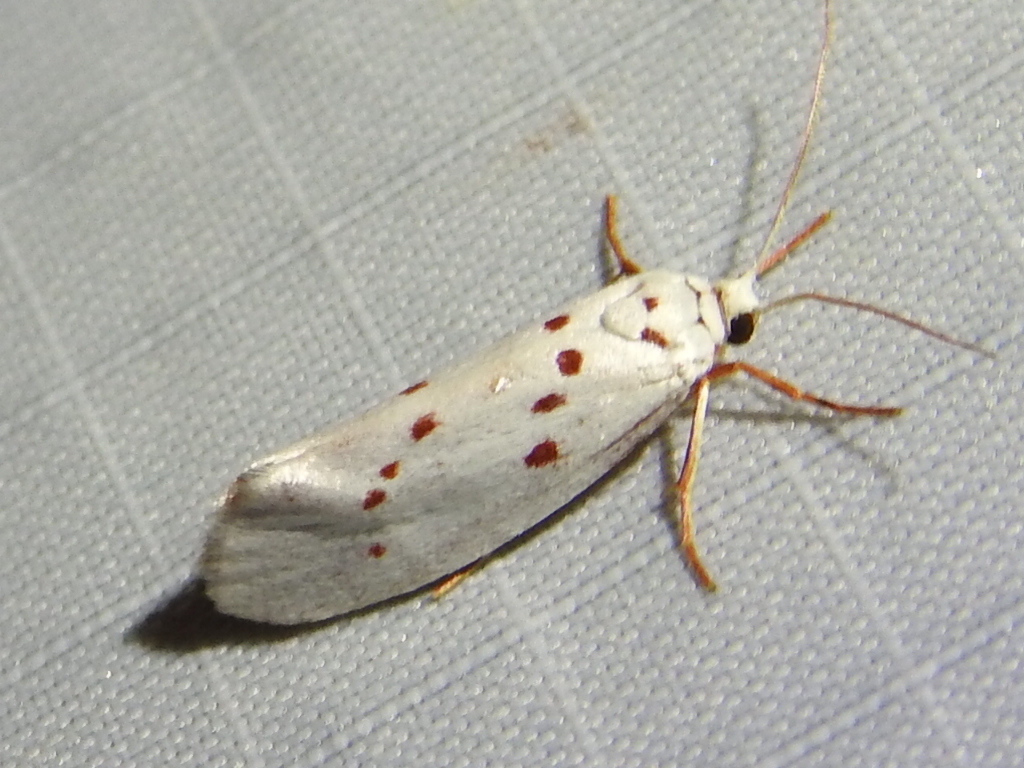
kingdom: Animalia
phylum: Arthropoda
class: Insecta
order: Lepidoptera
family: Lacturidae
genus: Lactura
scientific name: Lactura
